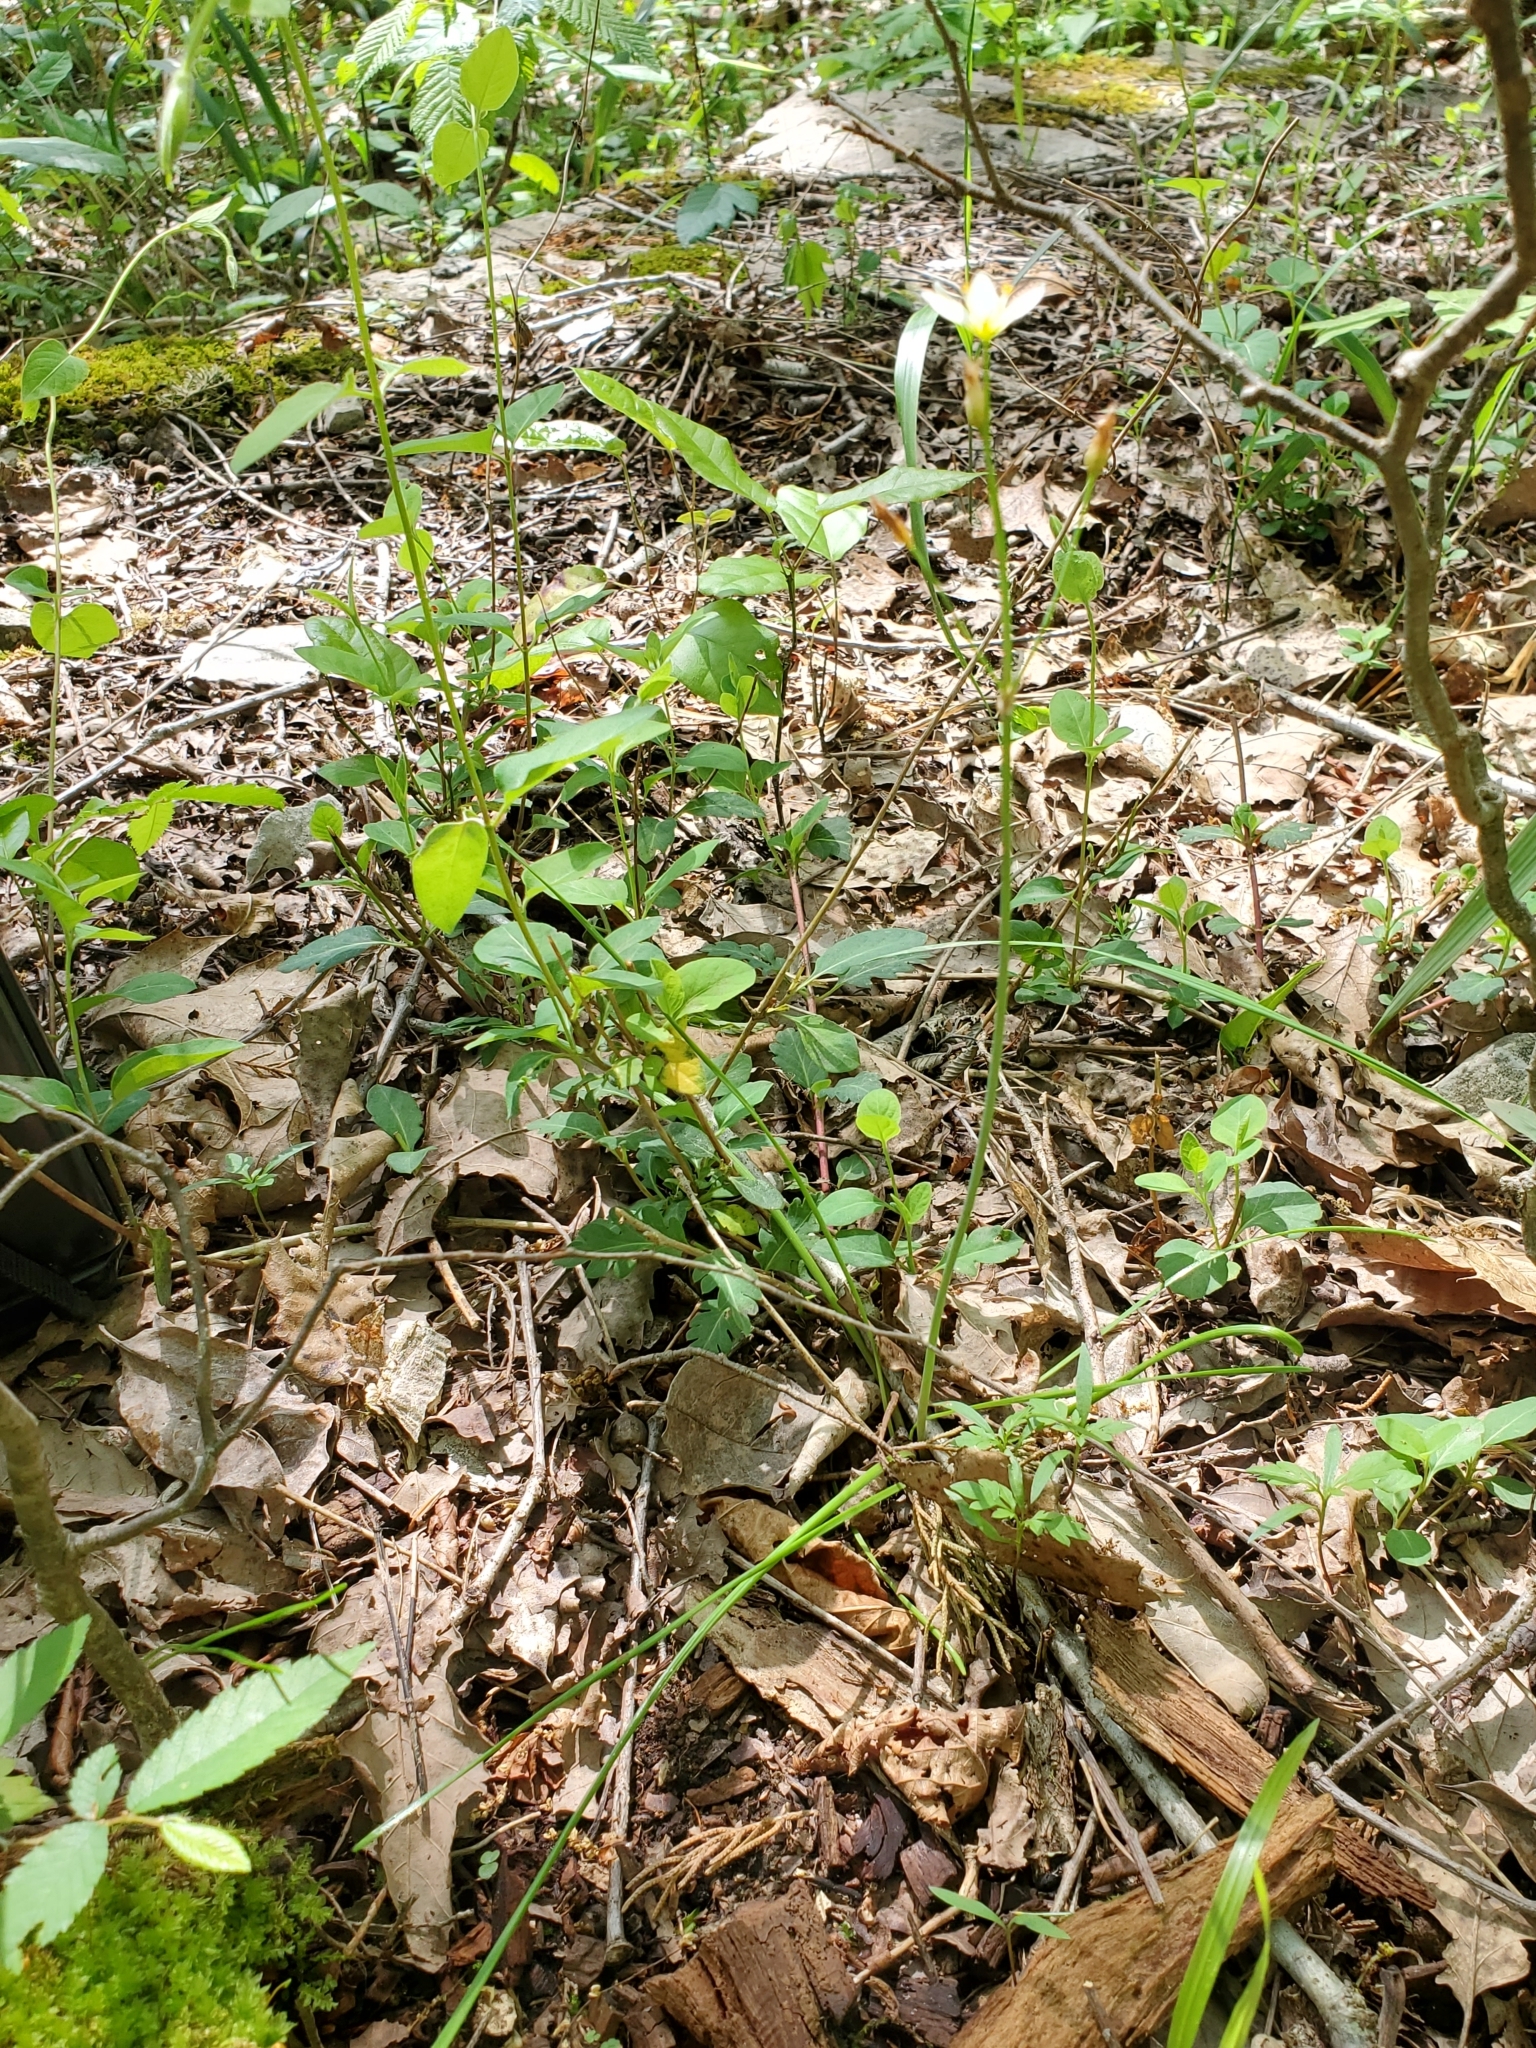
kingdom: Plantae
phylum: Tracheophyta
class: Liliopsida
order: Asparagales
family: Amaryllidaceae
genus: Nothoscordum
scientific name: Nothoscordum bivalve
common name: Crow-poison
